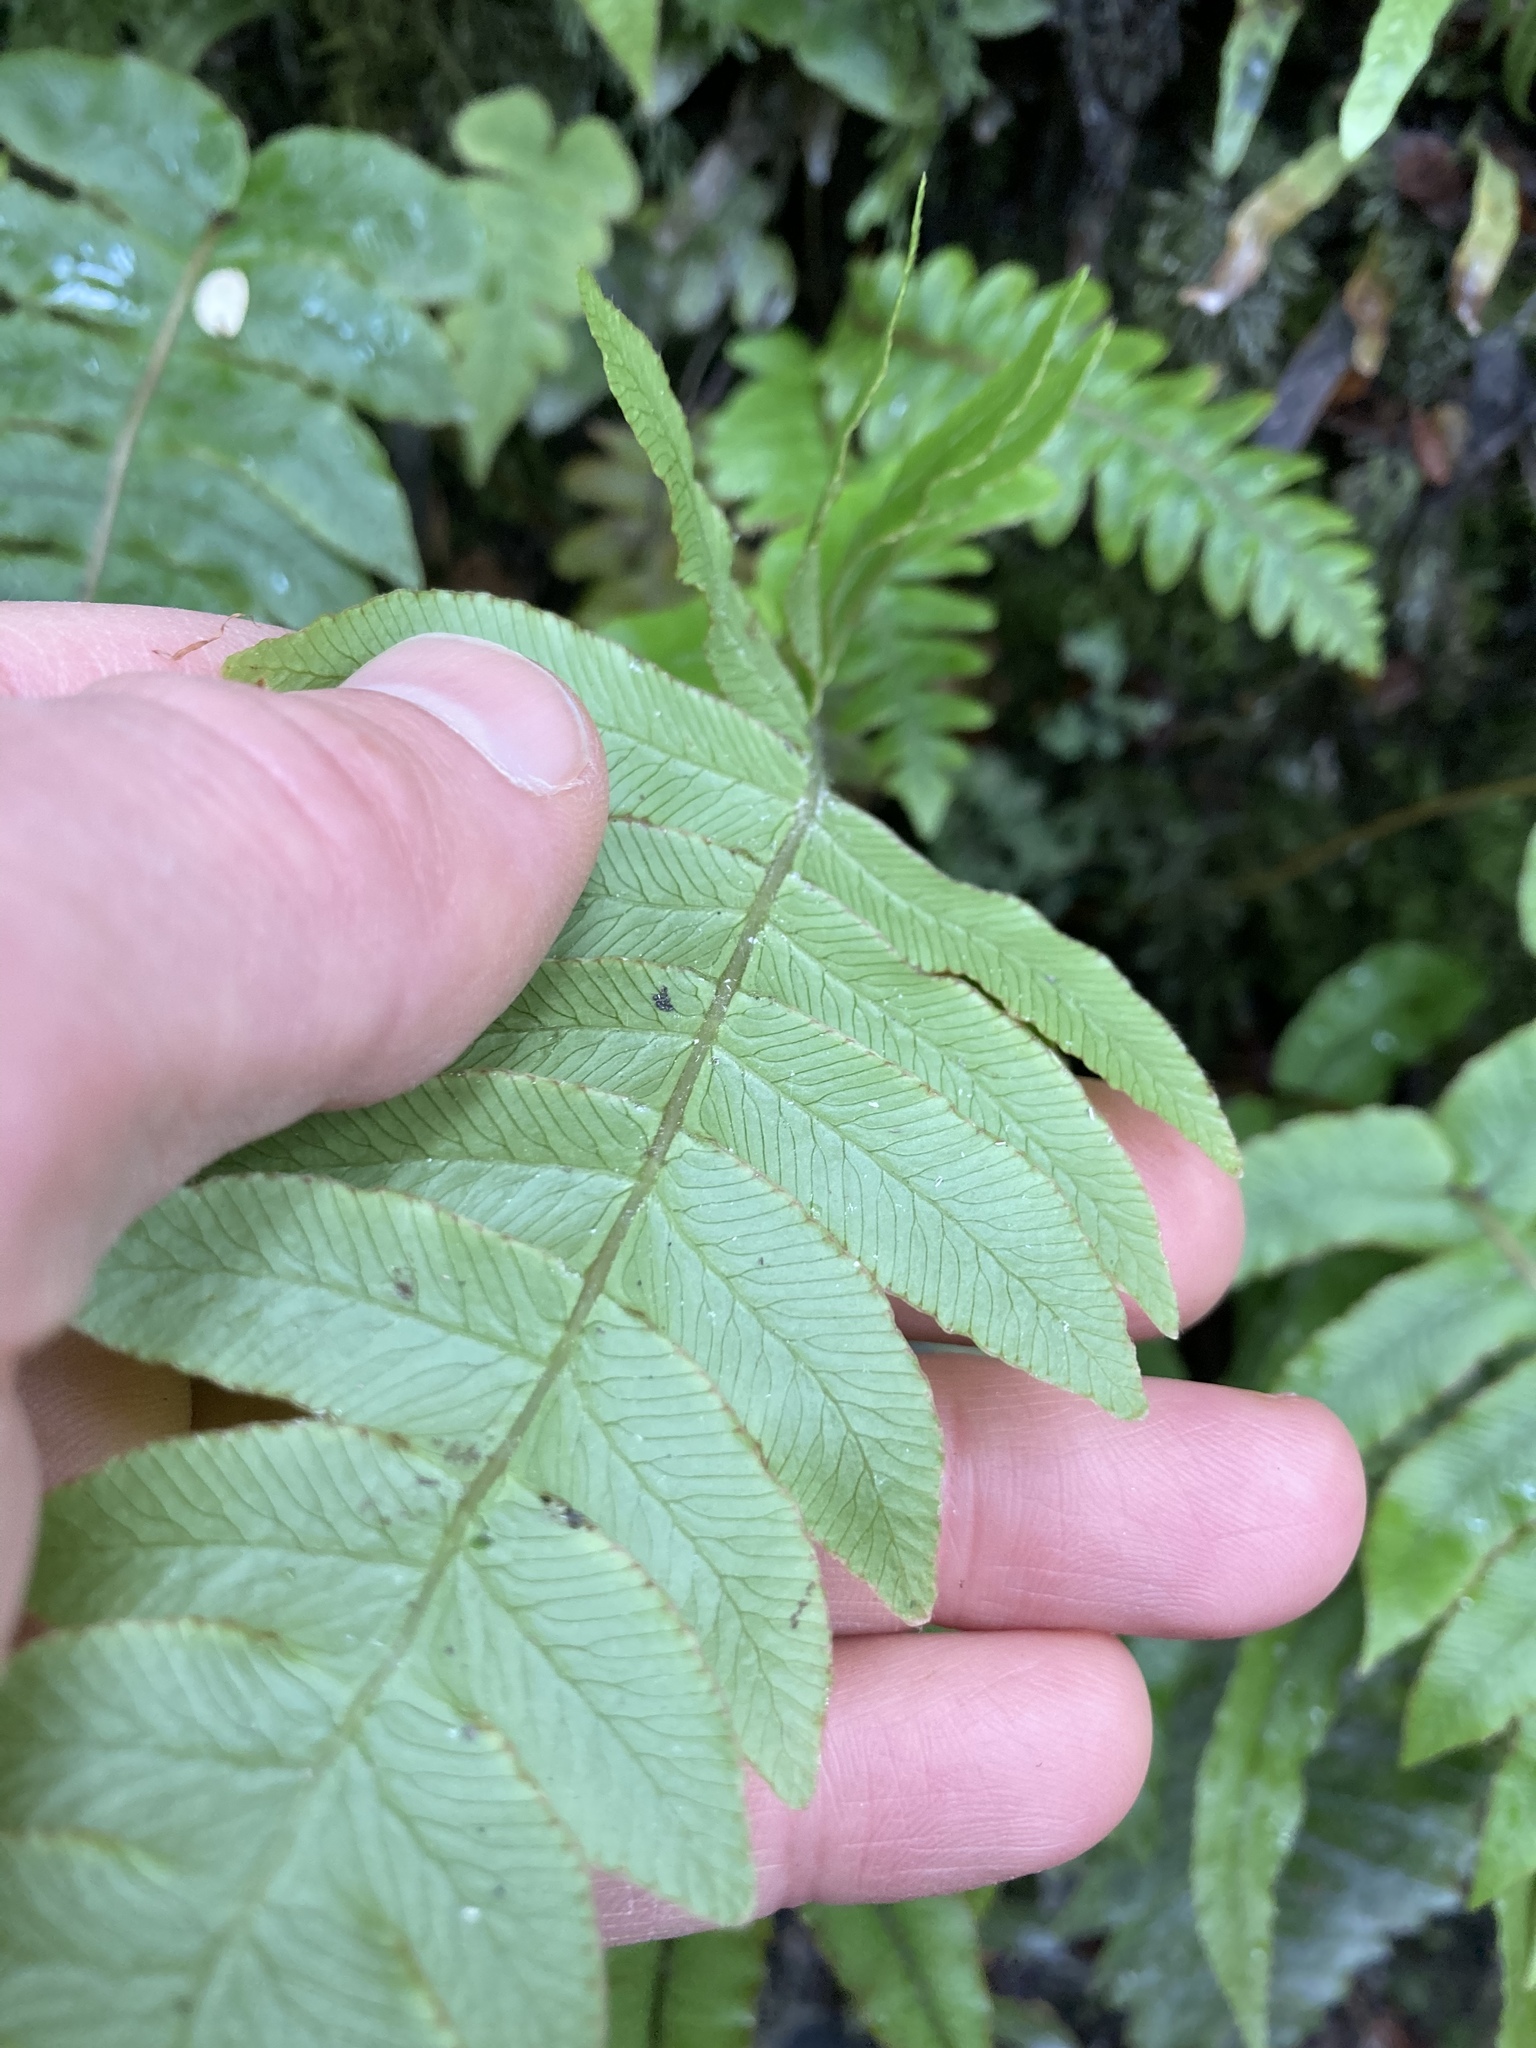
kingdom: Plantae
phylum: Tracheophyta
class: Polypodiopsida
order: Polypodiales
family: Blechnaceae
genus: Cranfillia
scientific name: Cranfillia deltoides
